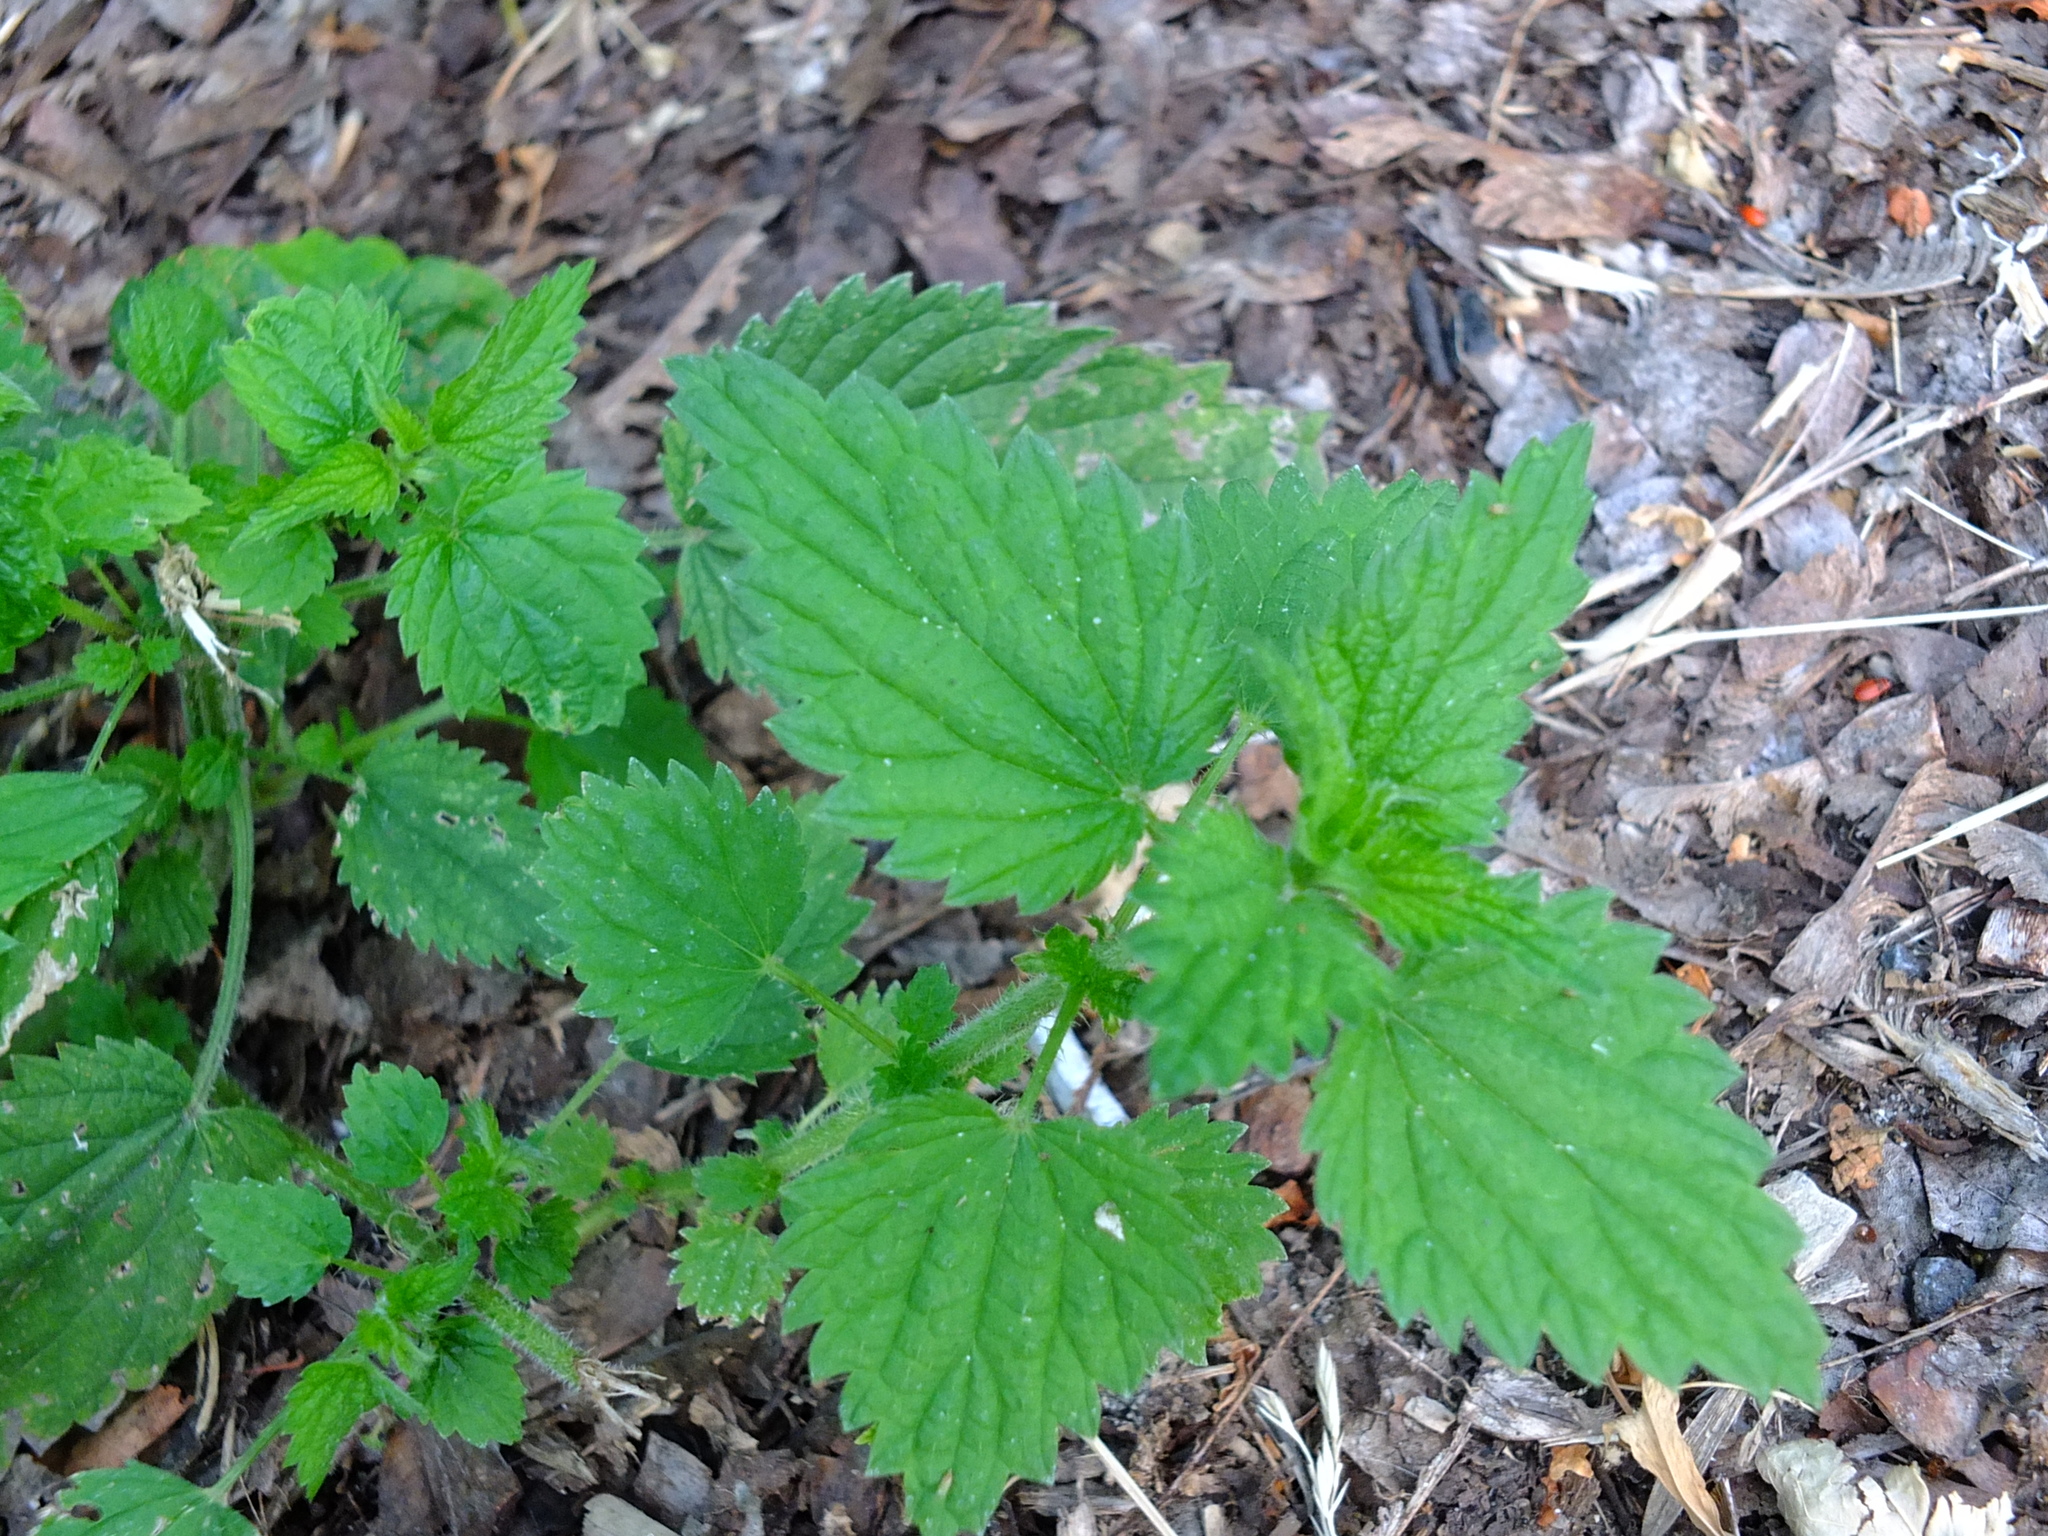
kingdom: Plantae
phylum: Tracheophyta
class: Magnoliopsida
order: Rosales
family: Urticaceae
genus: Urtica
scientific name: Urtica dioica
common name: Common nettle
